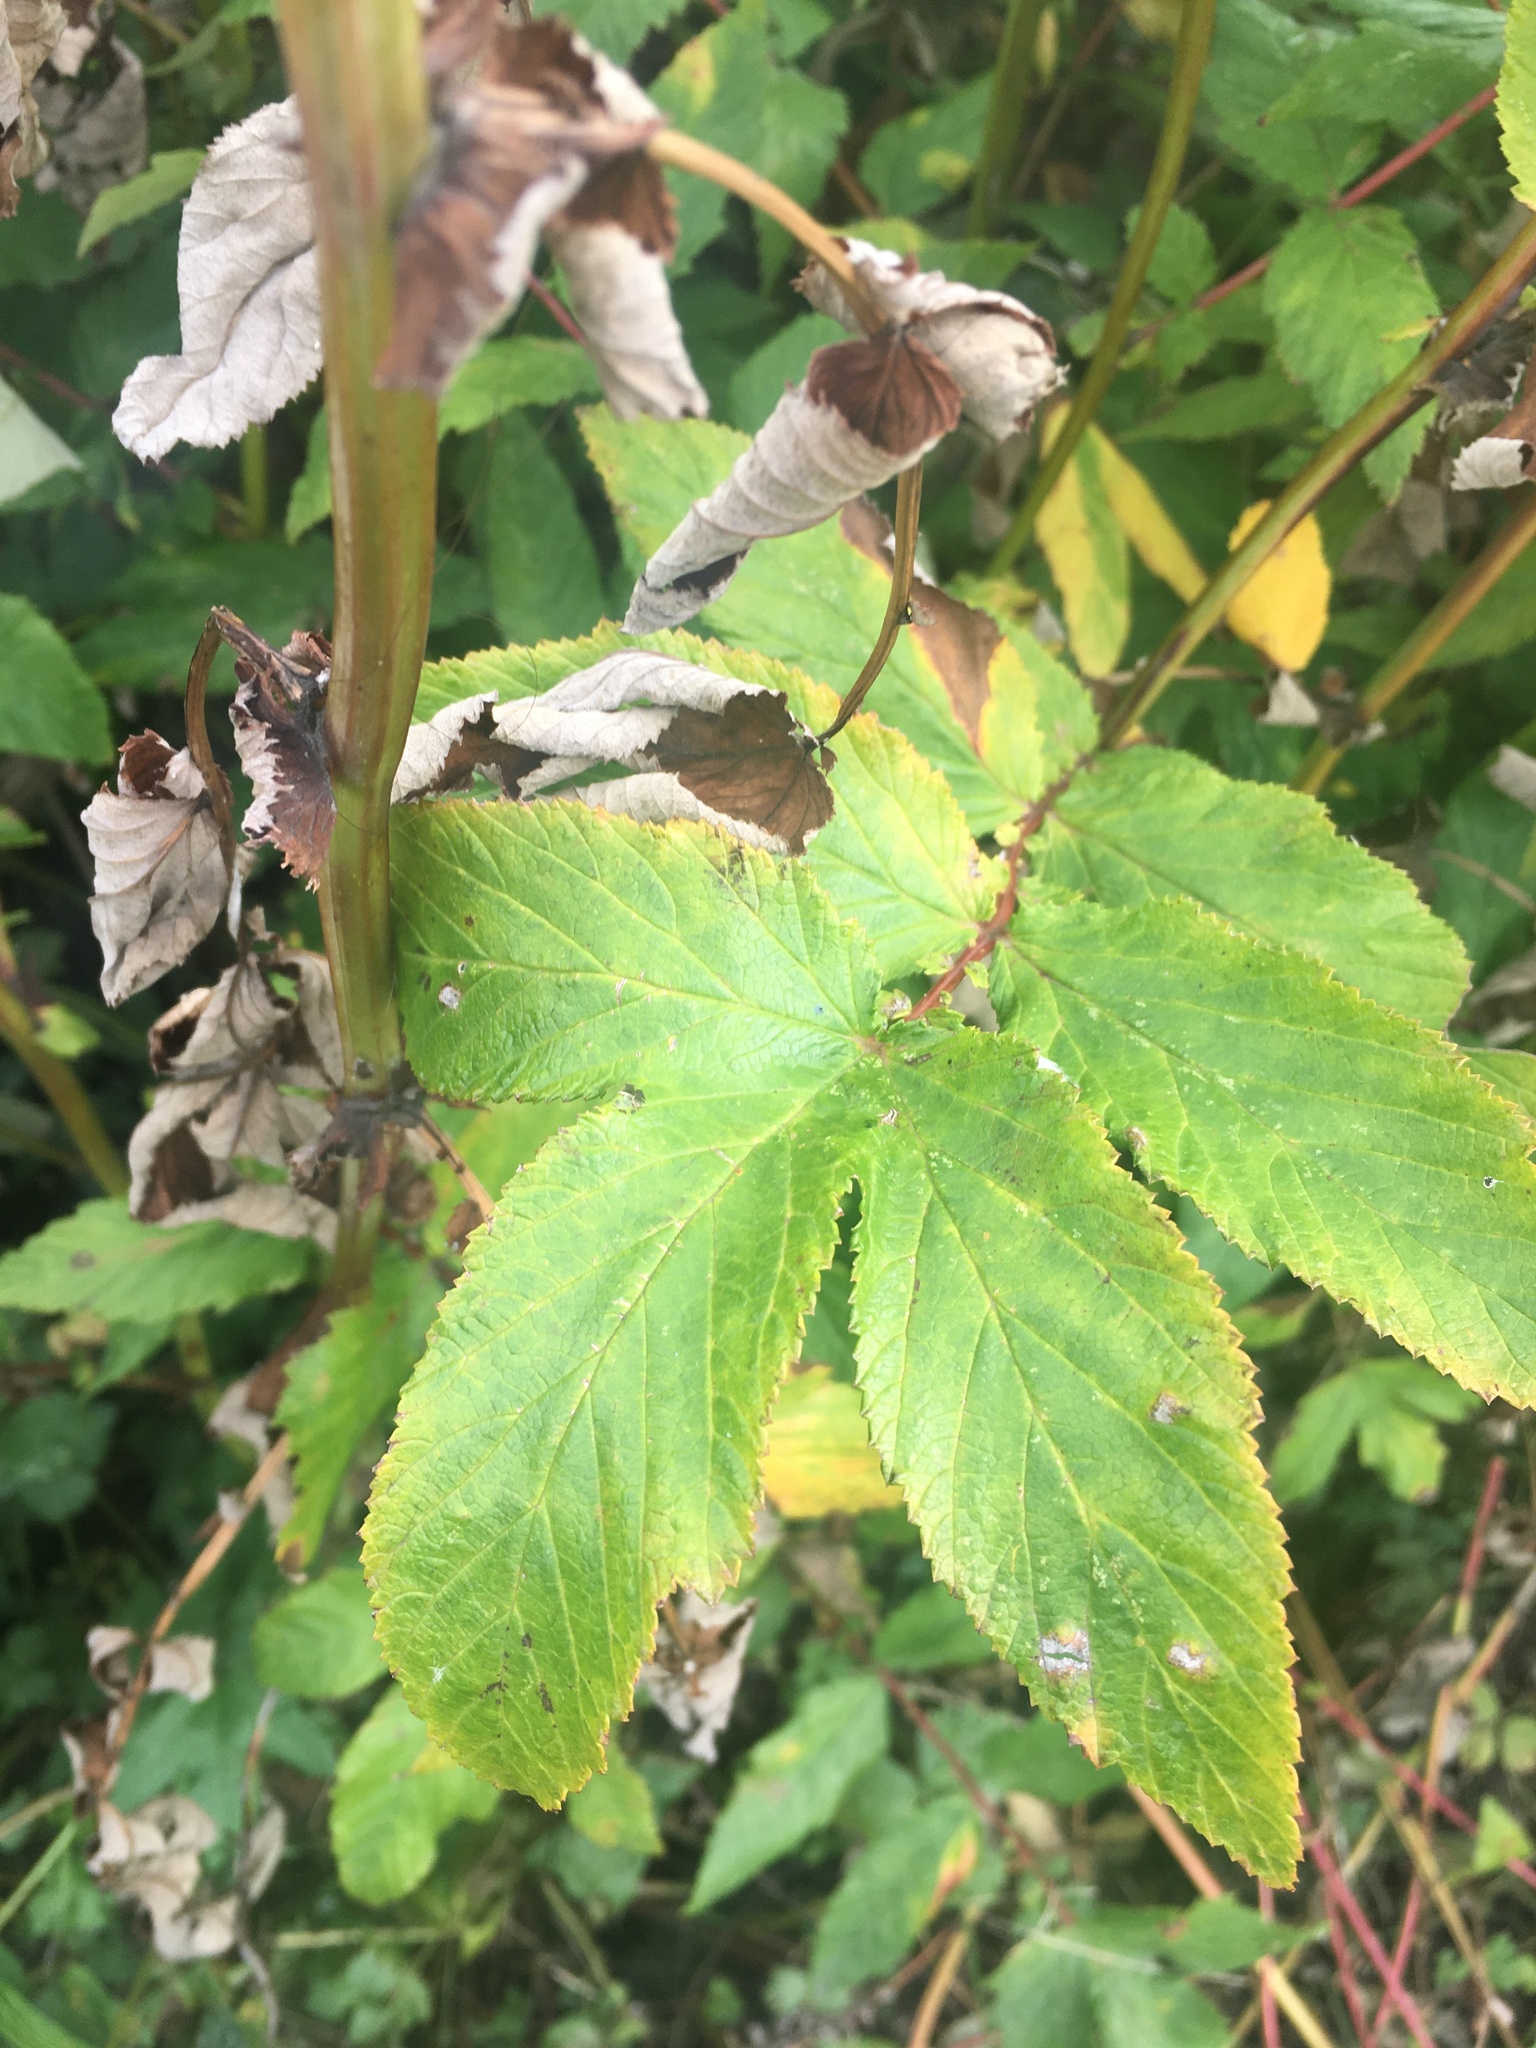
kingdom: Plantae
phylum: Tracheophyta
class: Magnoliopsida
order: Rosales
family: Rosaceae
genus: Filipendula
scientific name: Filipendula ulmaria
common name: Meadowsweet
